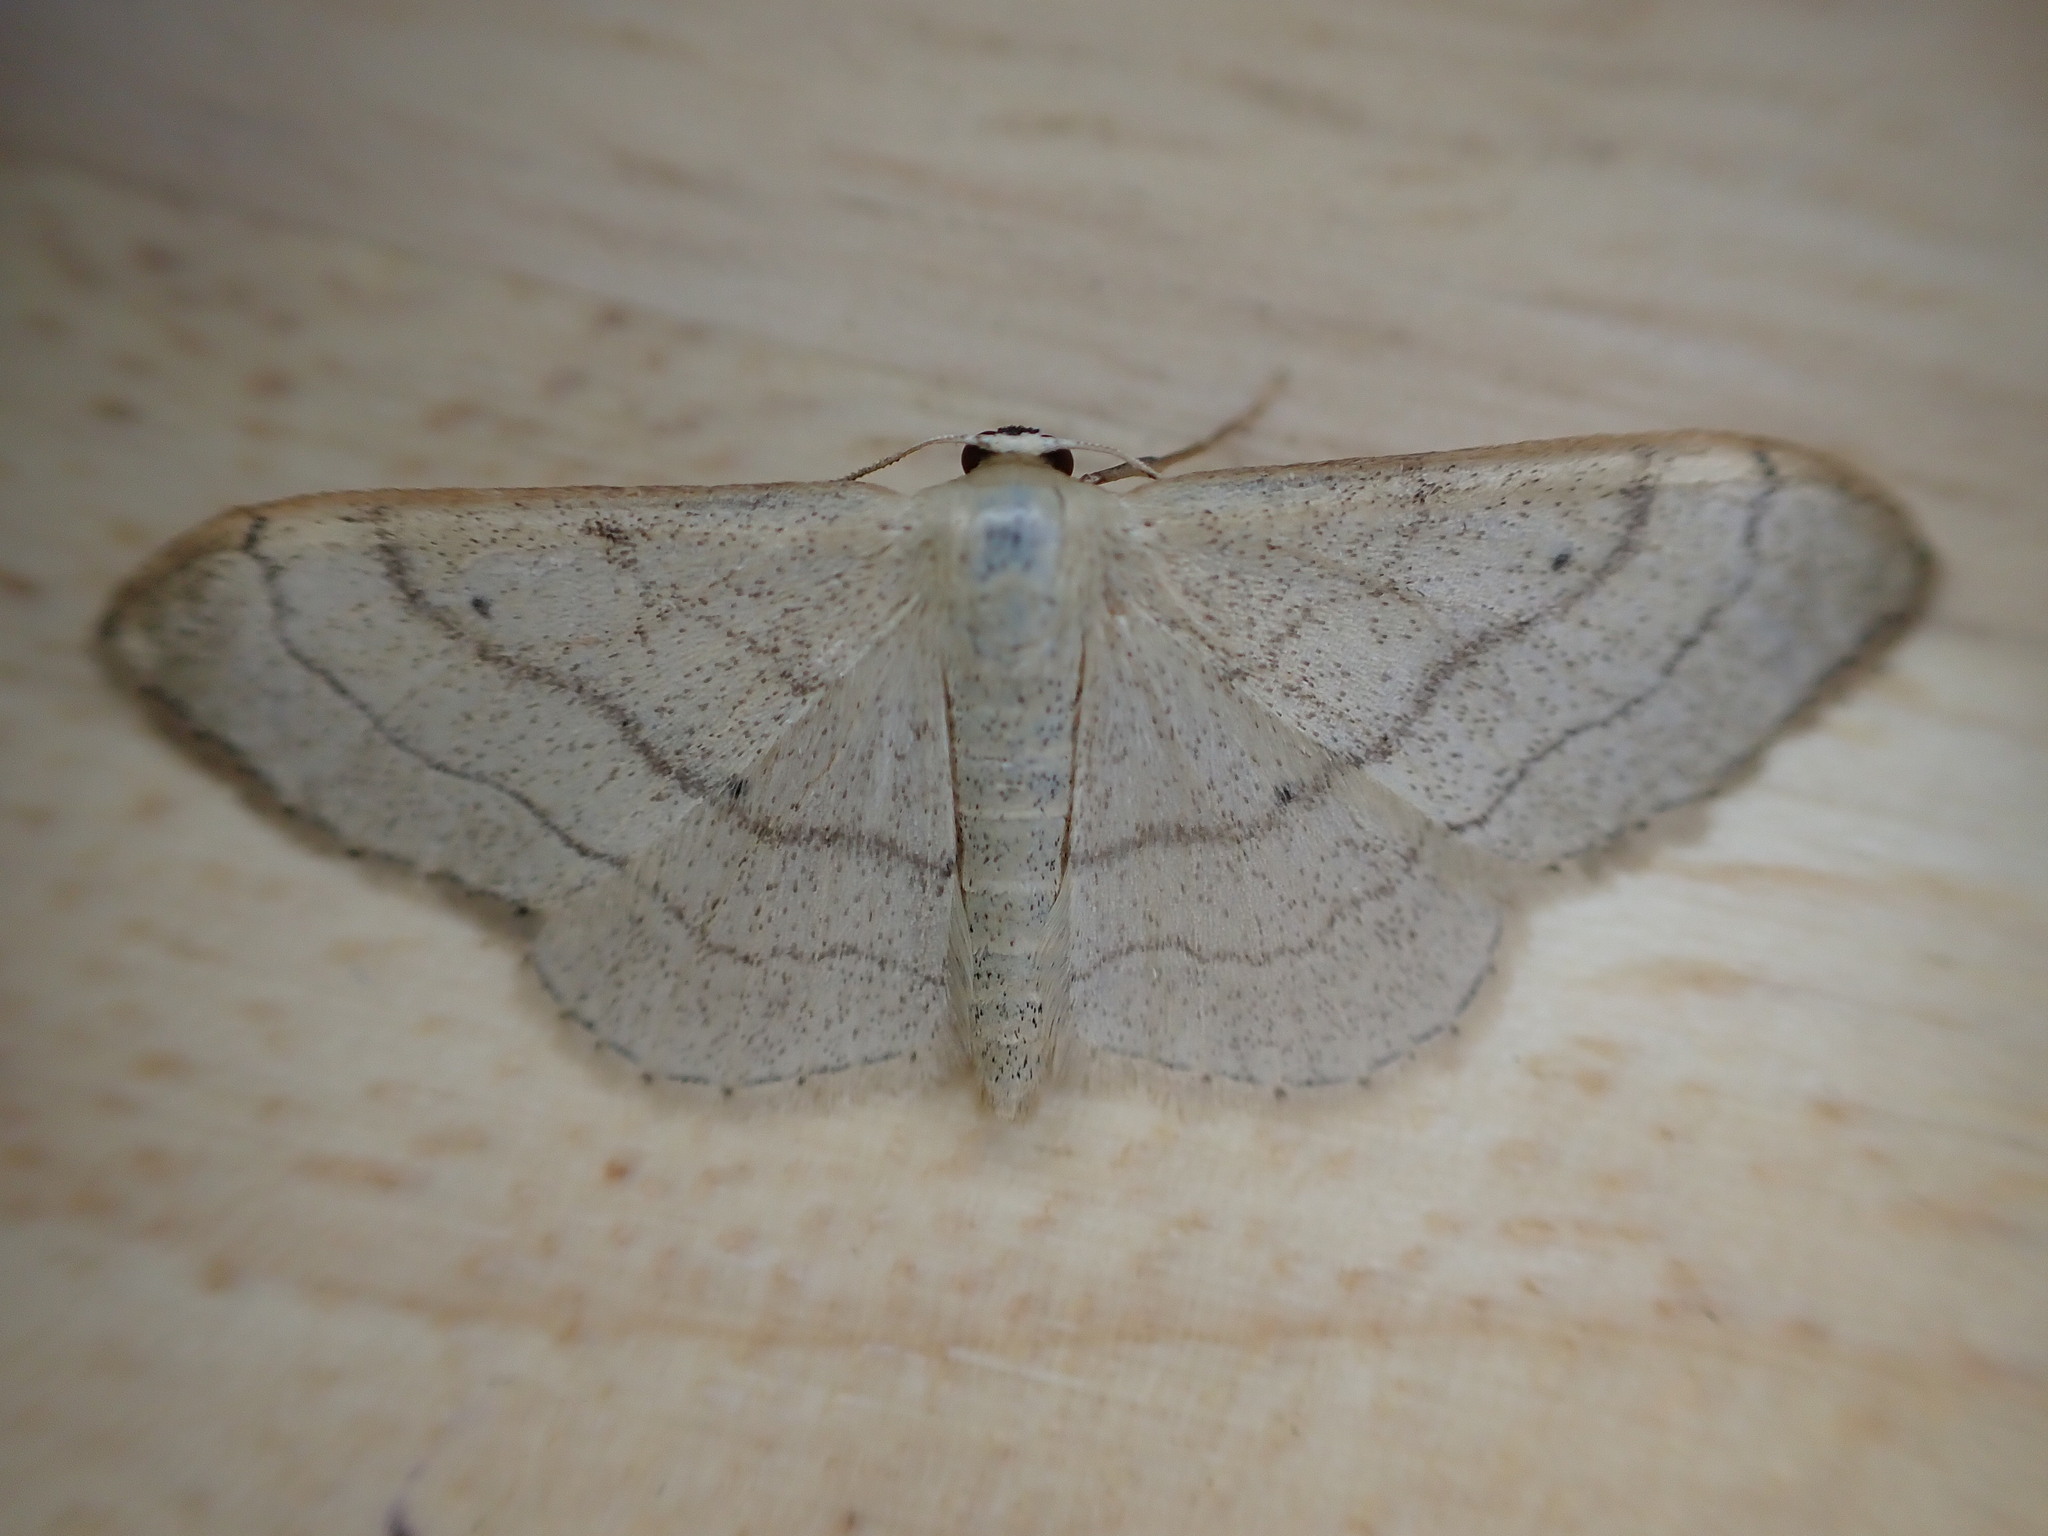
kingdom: Animalia
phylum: Arthropoda
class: Insecta
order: Lepidoptera
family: Geometridae
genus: Idaea
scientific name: Idaea aversata
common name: Riband wave
